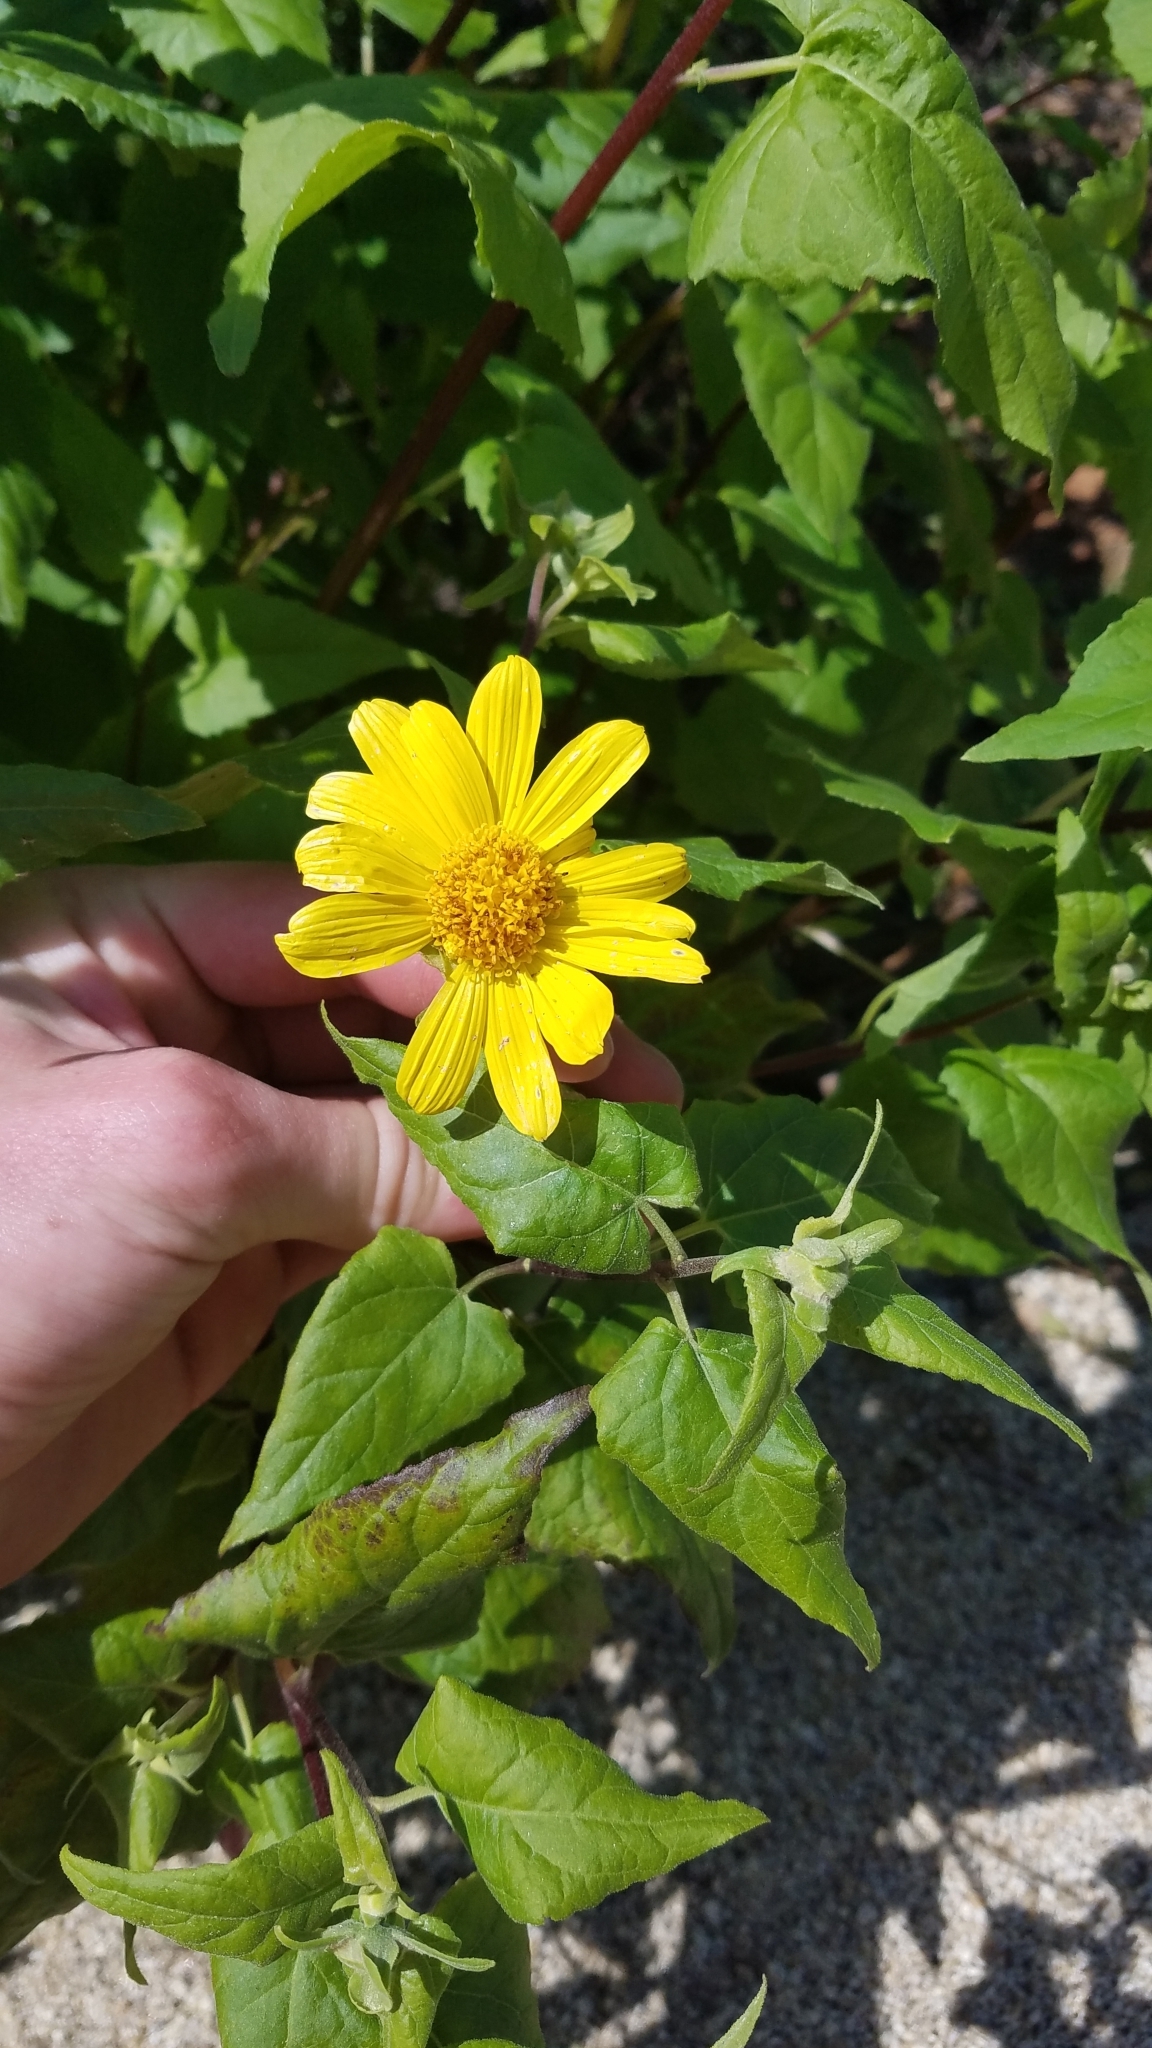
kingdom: Plantae
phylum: Tracheophyta
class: Magnoliopsida
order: Asterales
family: Asteraceae
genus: Venegasia
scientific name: Venegasia carpesioides
